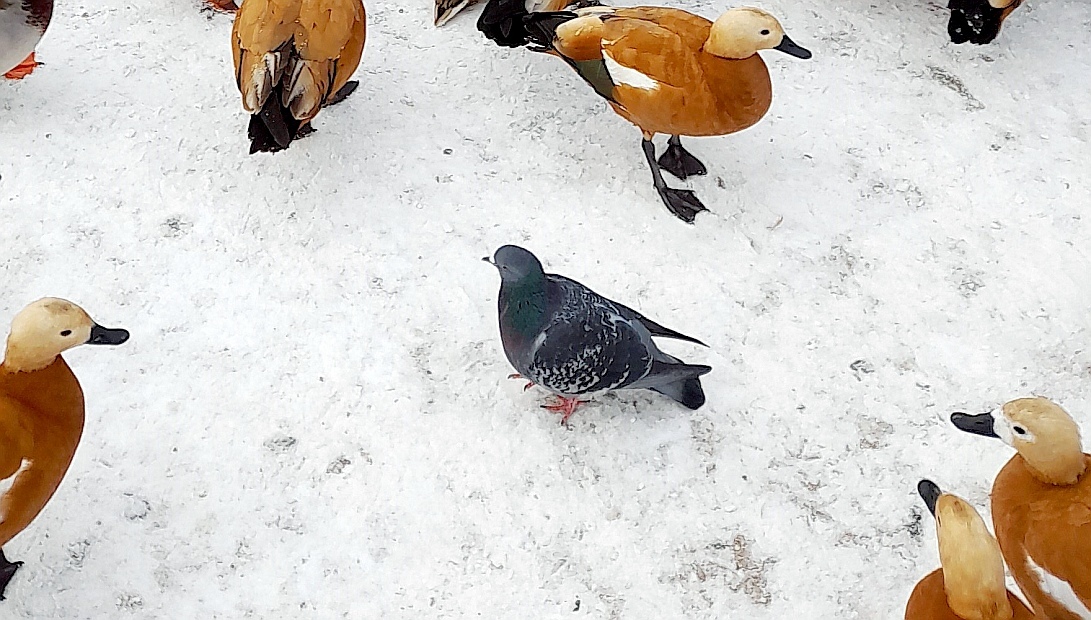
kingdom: Animalia
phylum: Chordata
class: Aves
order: Columbiformes
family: Columbidae
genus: Columba
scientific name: Columba livia
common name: Rock pigeon
